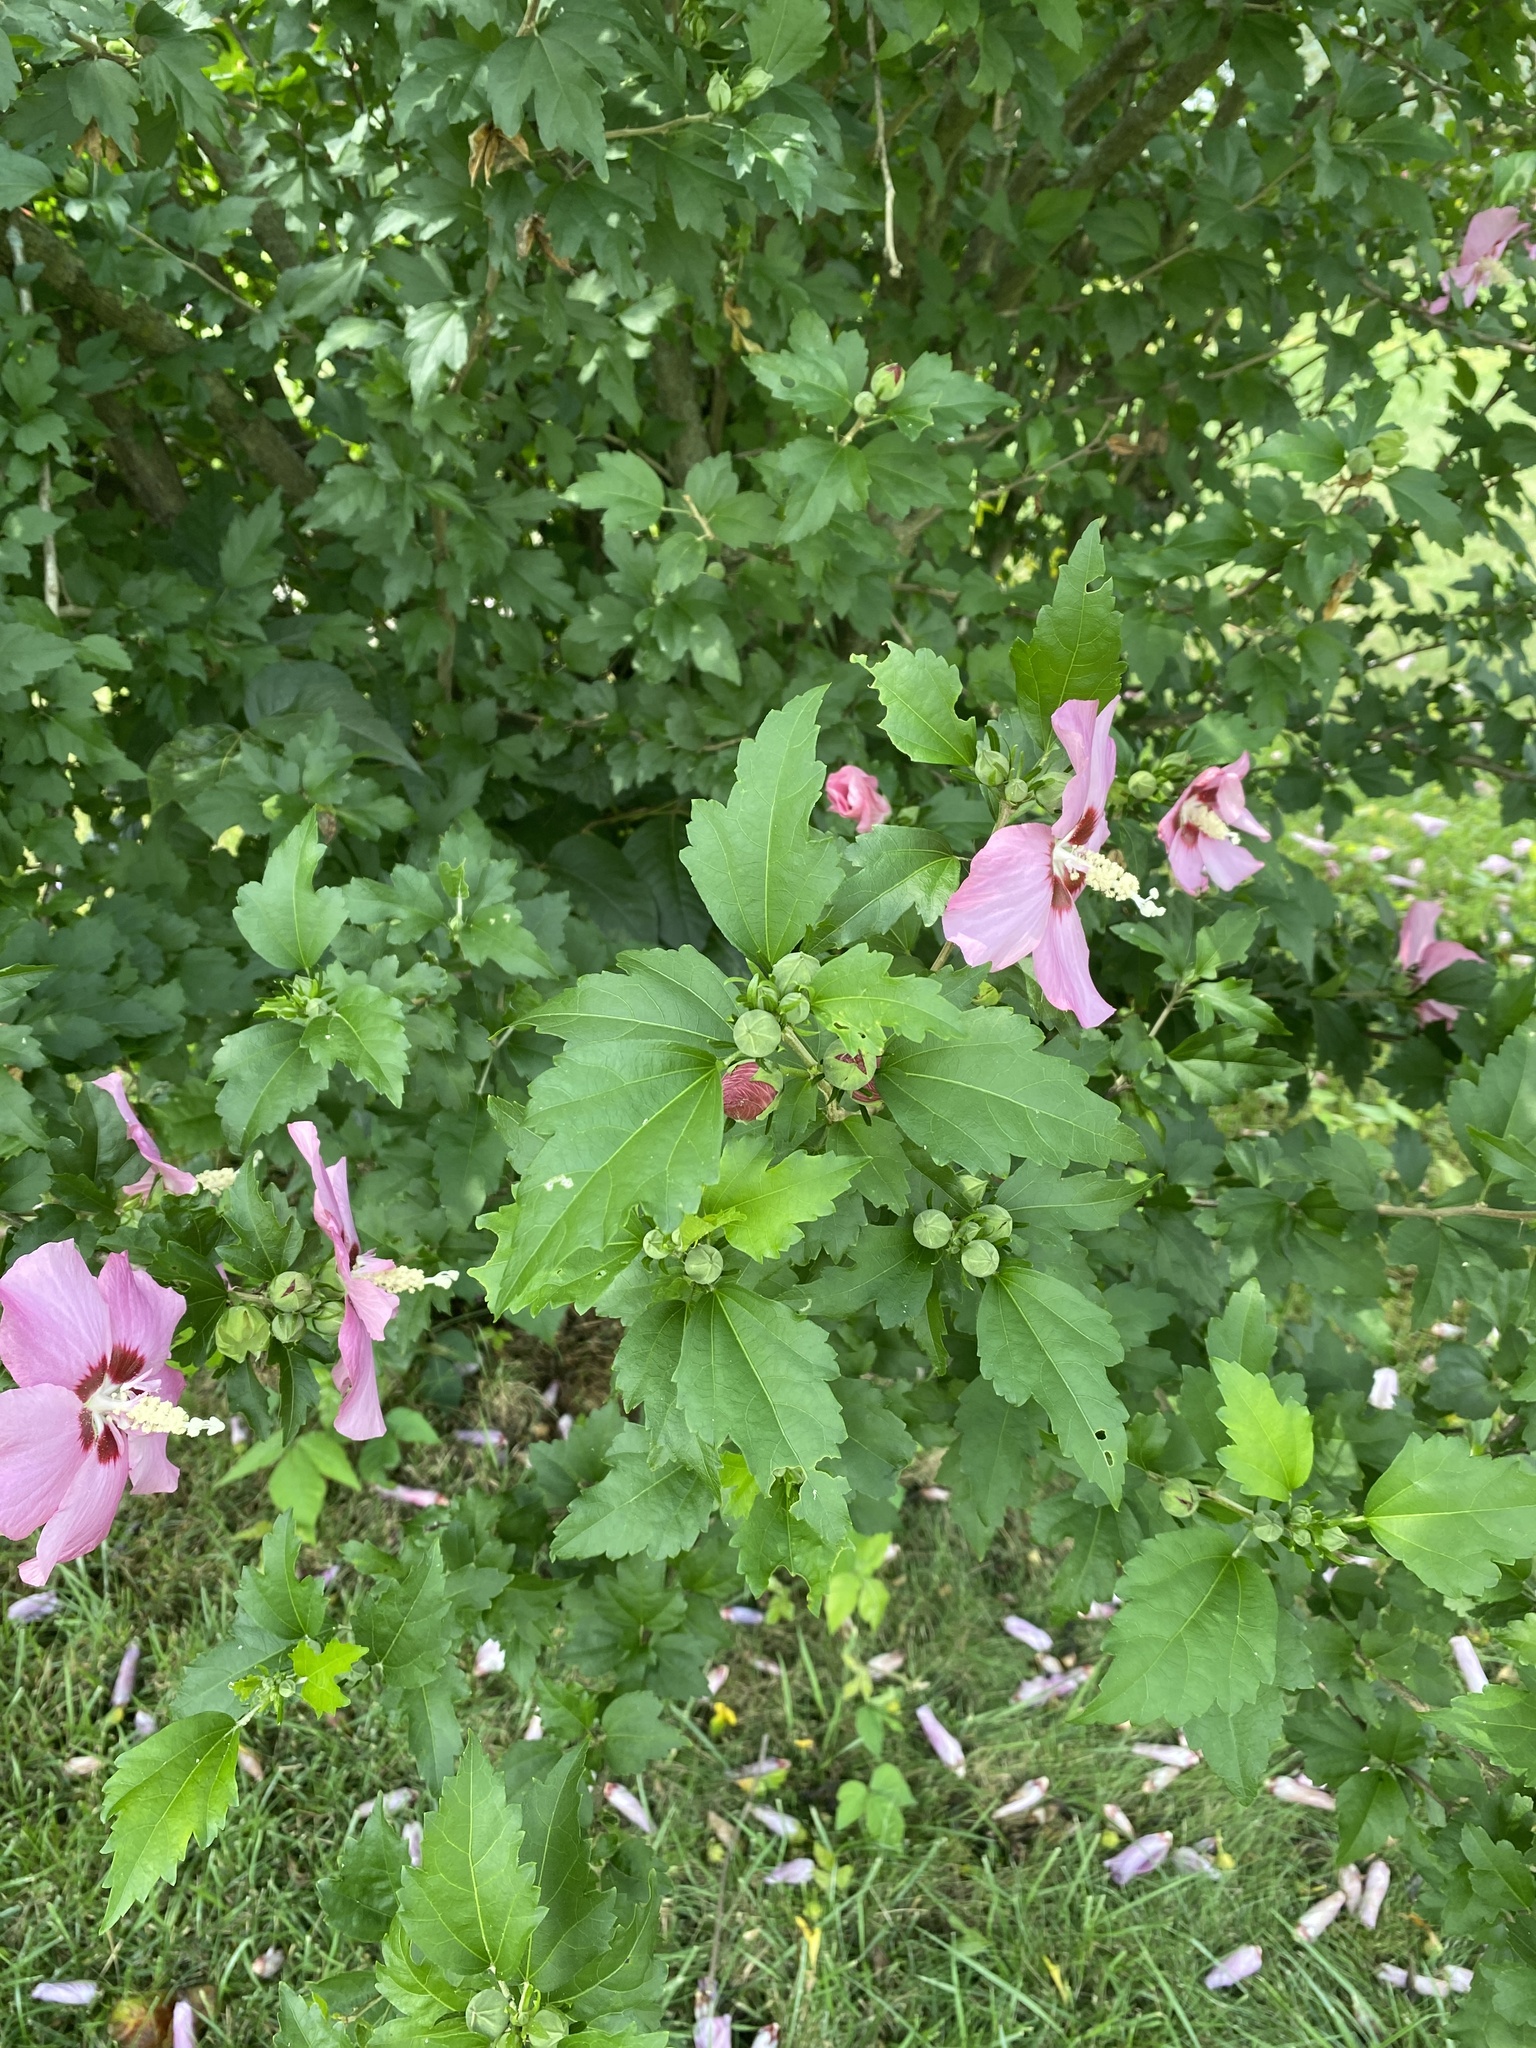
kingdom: Plantae
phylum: Tracheophyta
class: Magnoliopsida
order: Malvales
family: Malvaceae
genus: Hibiscus
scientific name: Hibiscus syriacus
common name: Syrian ketmia
